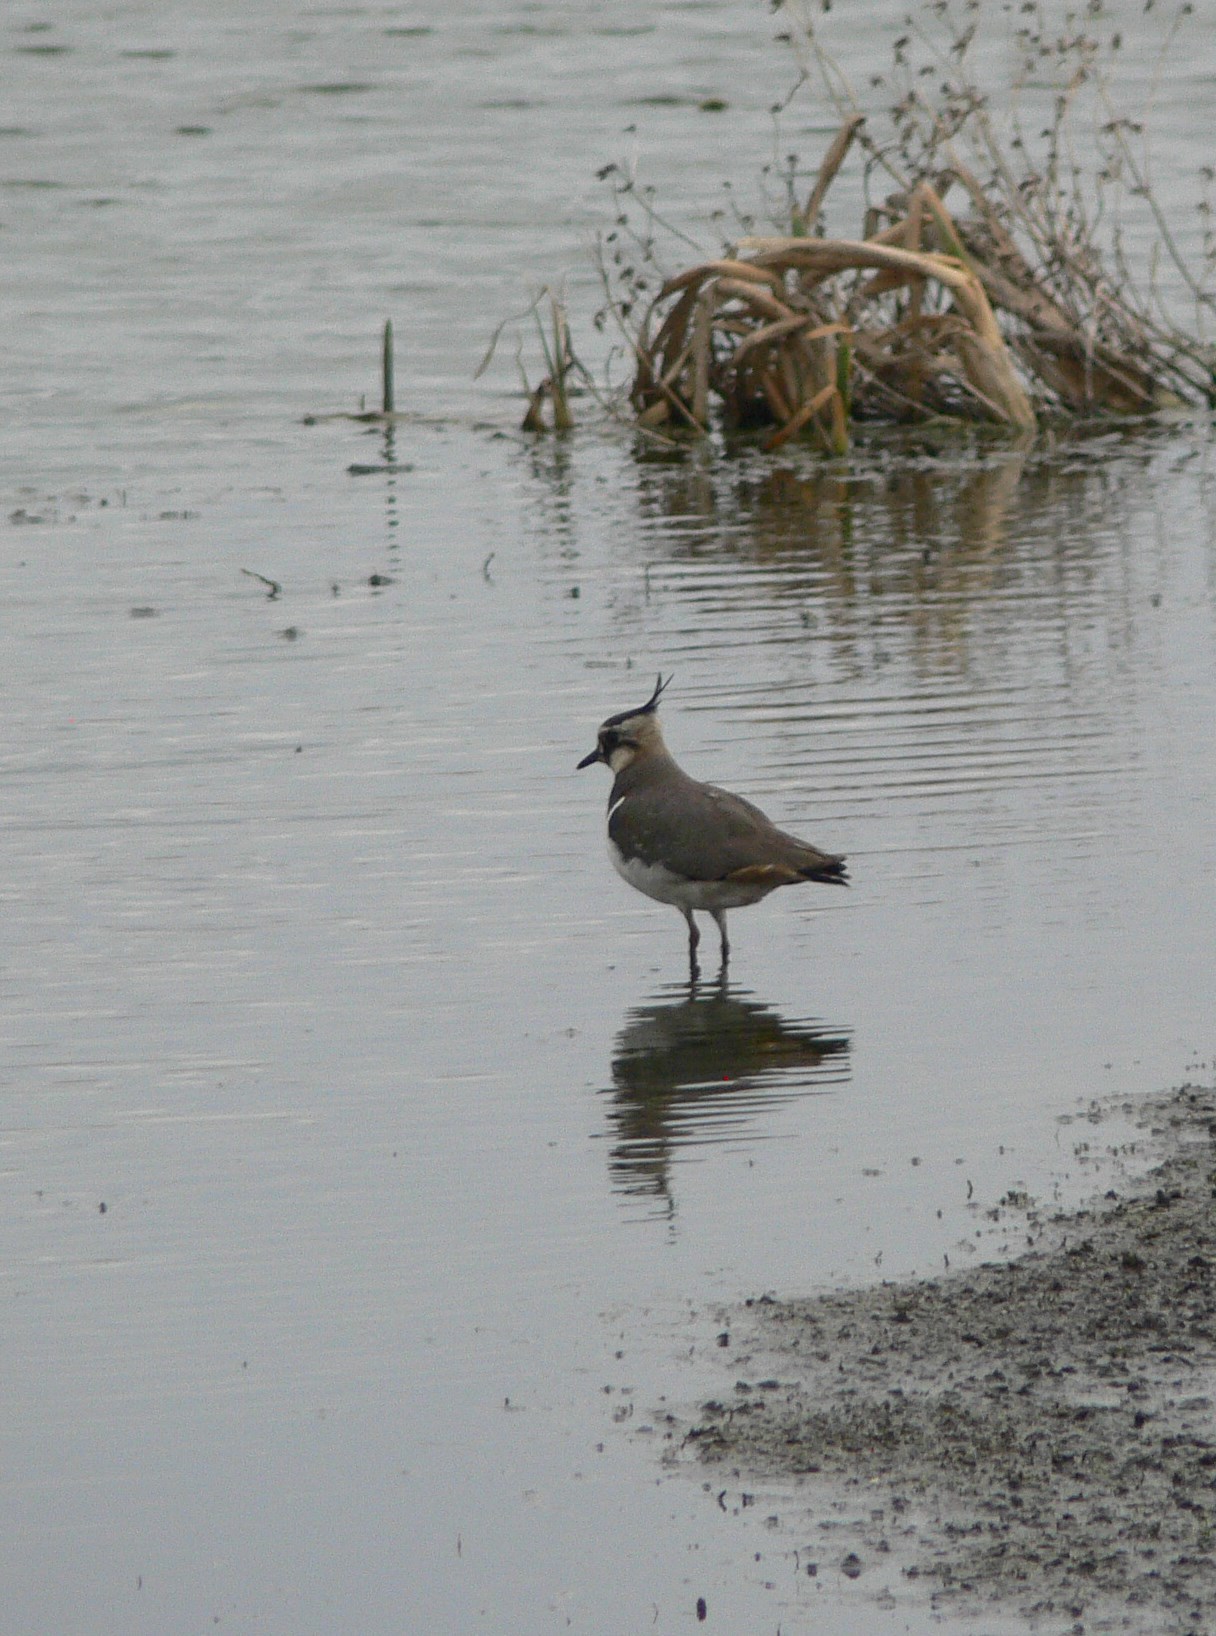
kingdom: Animalia
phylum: Chordata
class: Aves
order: Charadriiformes
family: Charadriidae
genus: Vanellus
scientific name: Vanellus vanellus
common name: Northern lapwing
